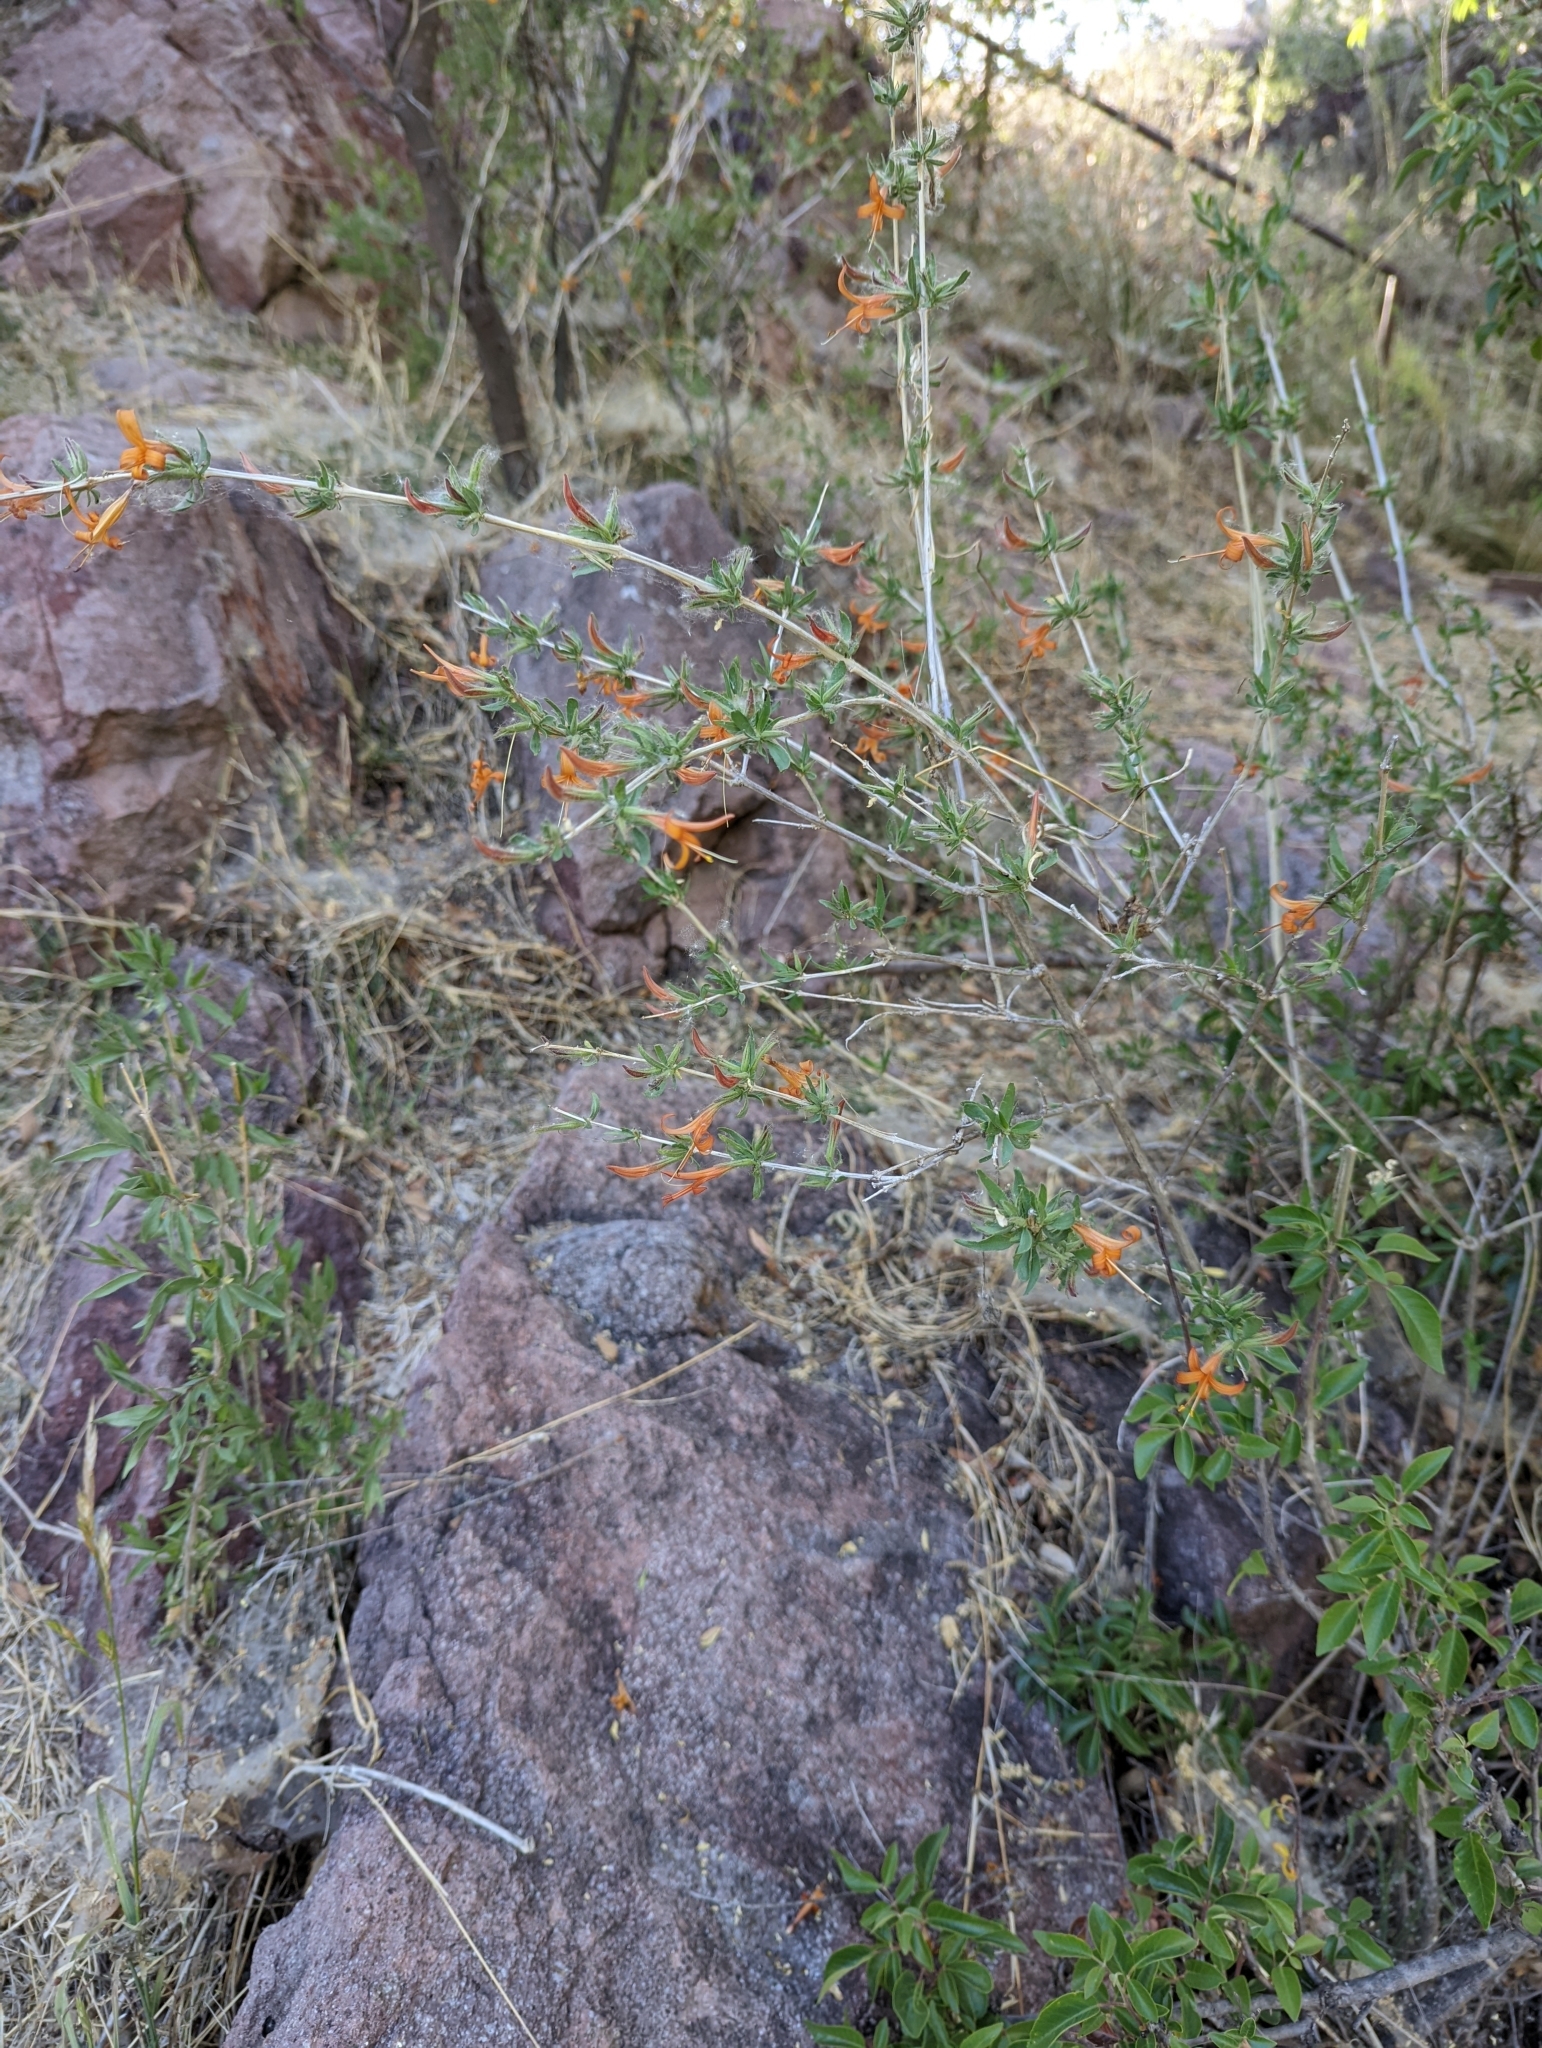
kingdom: Plantae
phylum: Tracheophyta
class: Magnoliopsida
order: Lamiales
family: Acanthaceae
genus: Anisacanthus
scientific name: Anisacanthus thurberi
